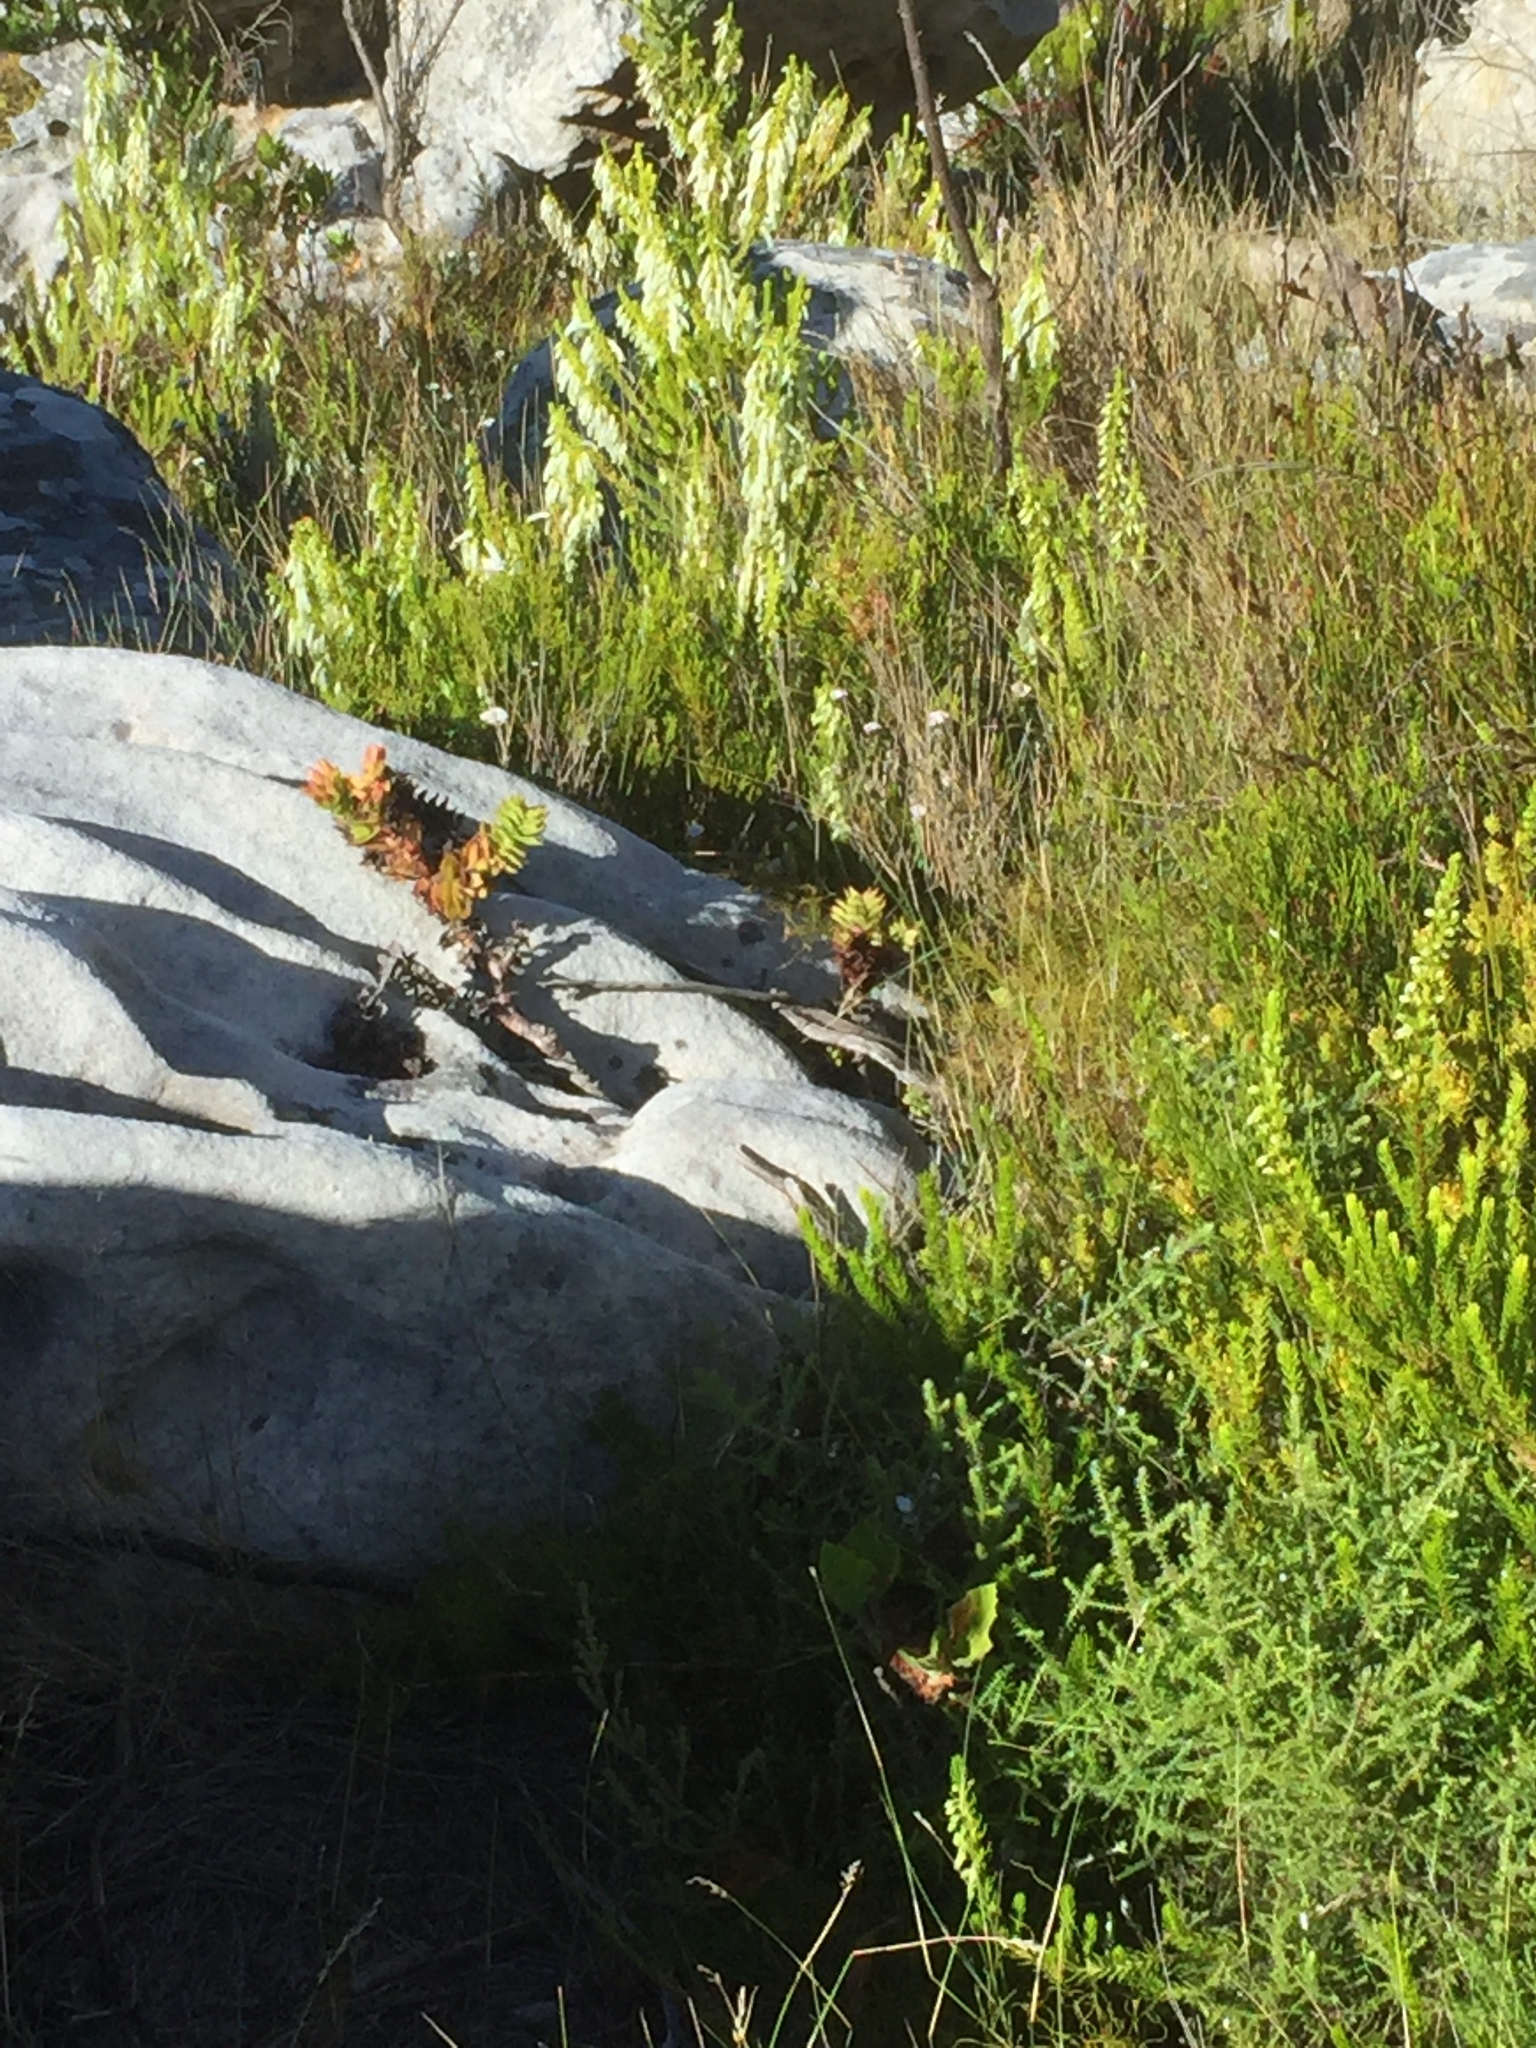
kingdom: Plantae
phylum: Tracheophyta
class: Magnoliopsida
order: Ericales
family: Ericaceae
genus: Erica
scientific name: Erica mammosa
